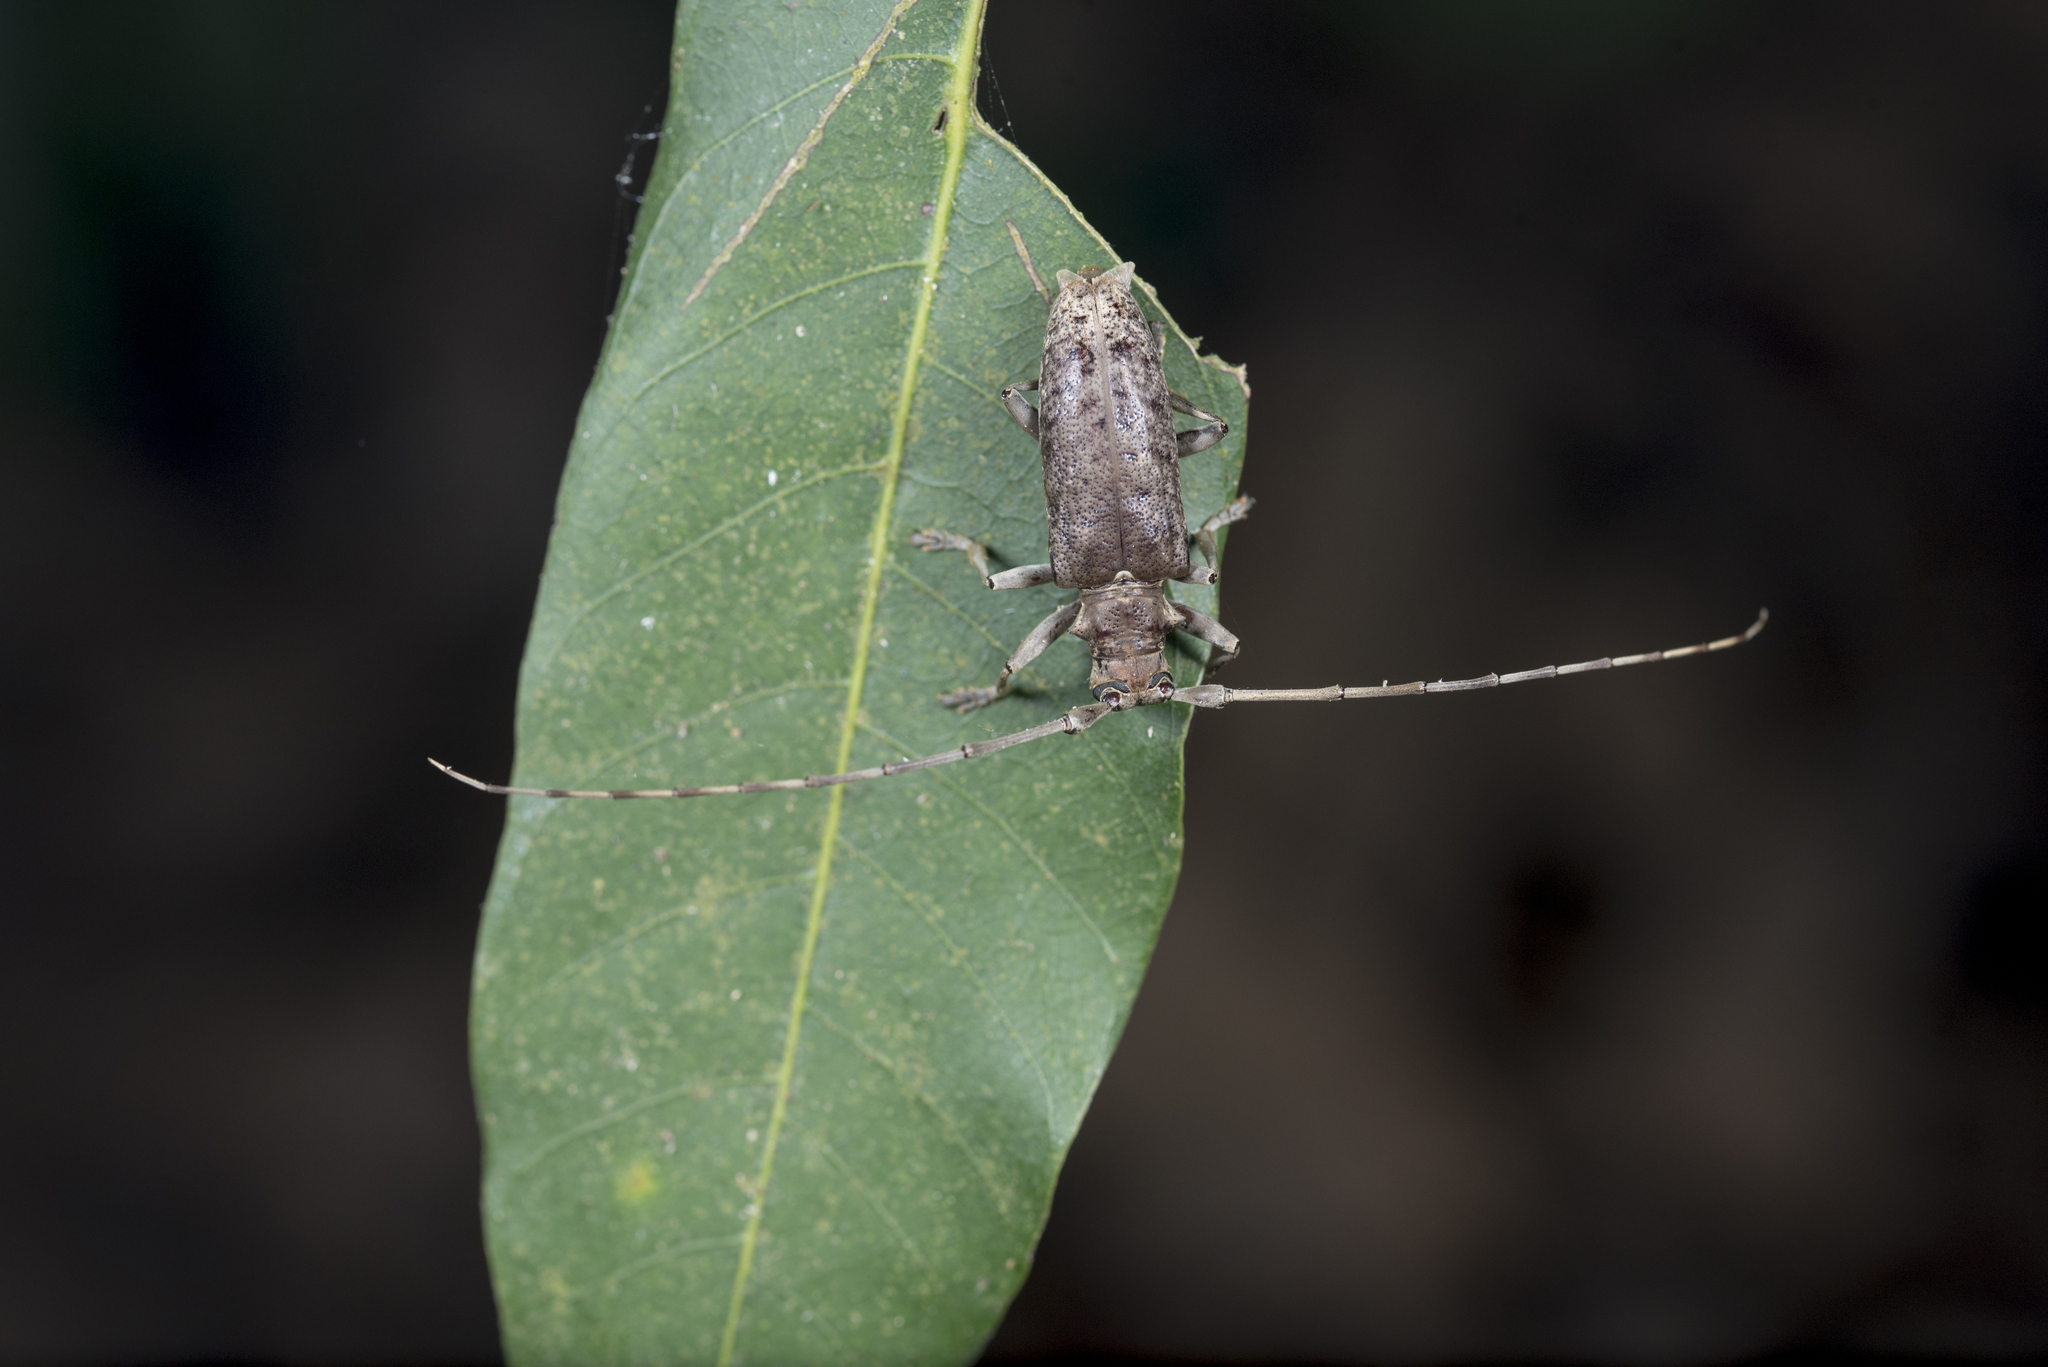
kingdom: Animalia
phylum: Arthropoda
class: Insecta
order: Coleoptera
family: Cerambycidae
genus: Acalolepta
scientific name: Acalolepta rusticatrix
